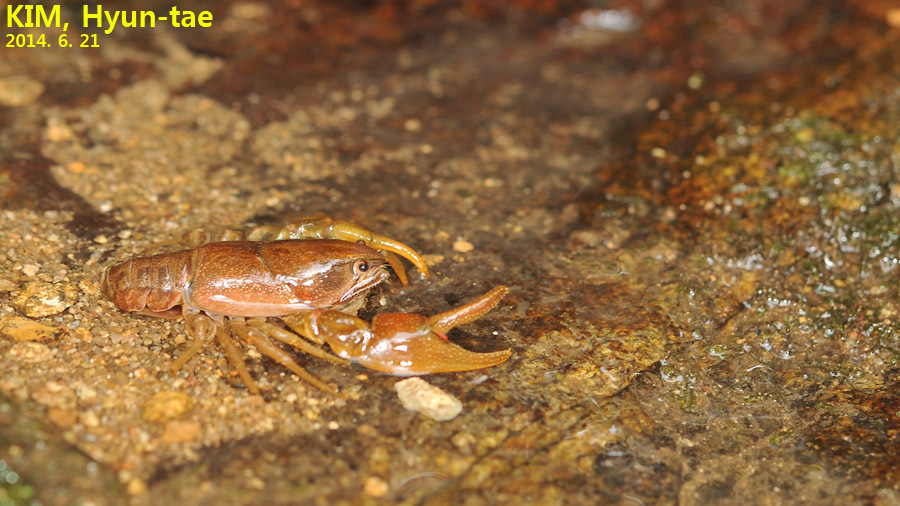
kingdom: Animalia
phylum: Arthropoda
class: Malacostraca
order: Decapoda
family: Cambaroididae
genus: Cambaroides
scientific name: Cambaroides similis
